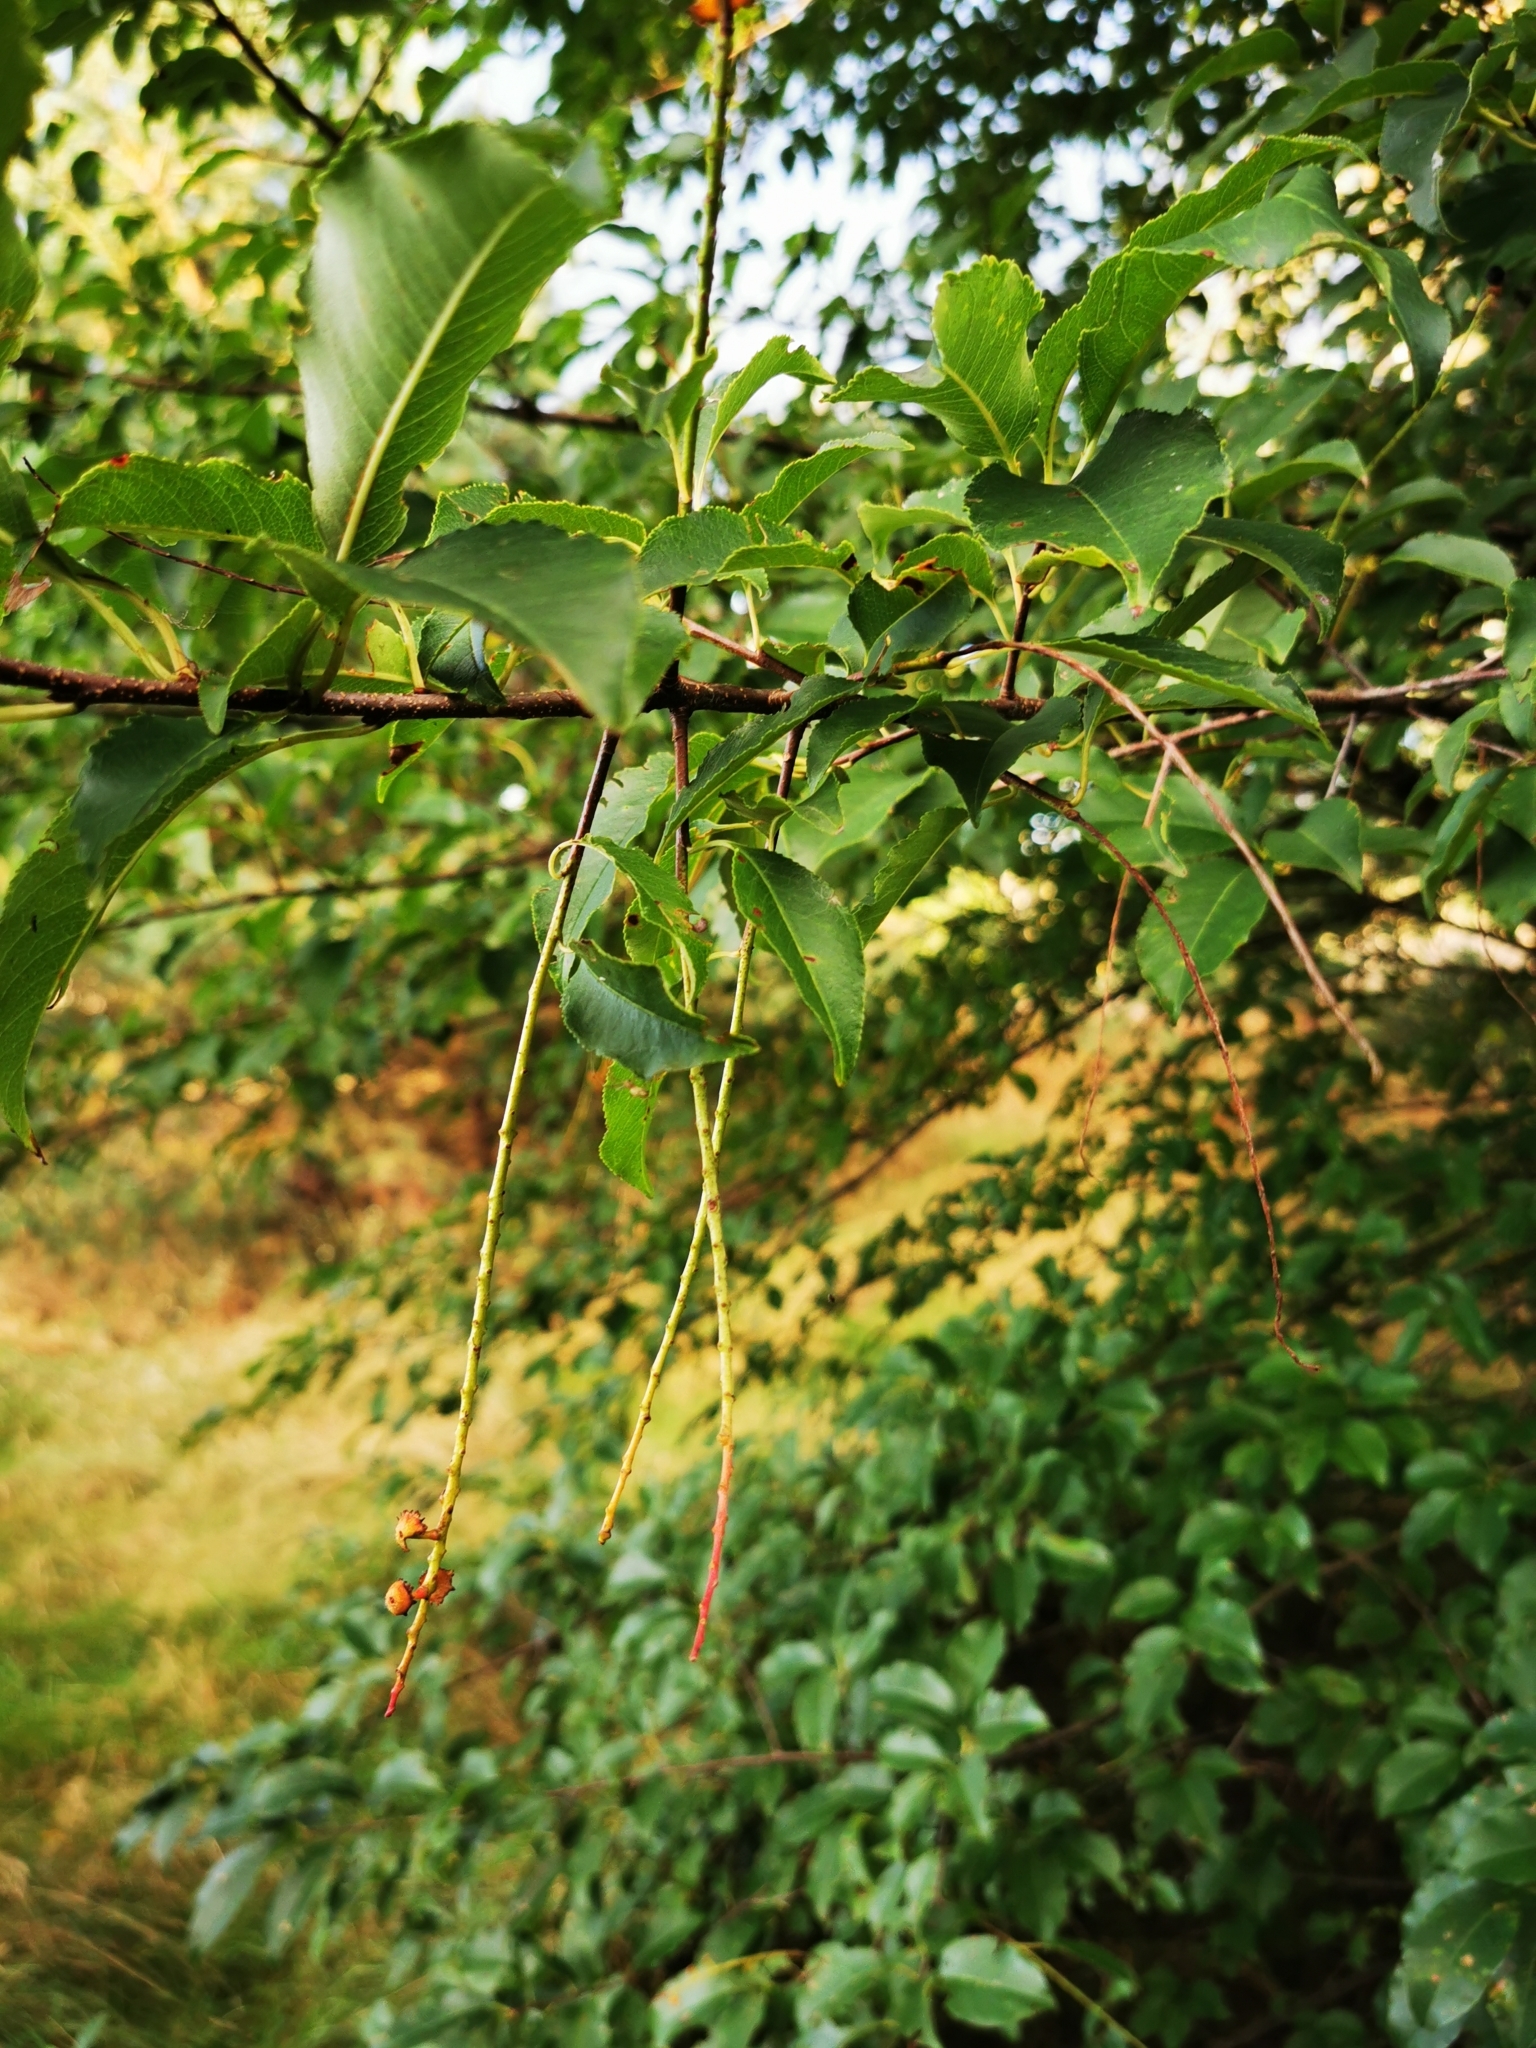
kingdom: Plantae
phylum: Tracheophyta
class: Magnoliopsida
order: Rosales
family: Rosaceae
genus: Prunus
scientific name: Prunus serotina
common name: Black cherry
